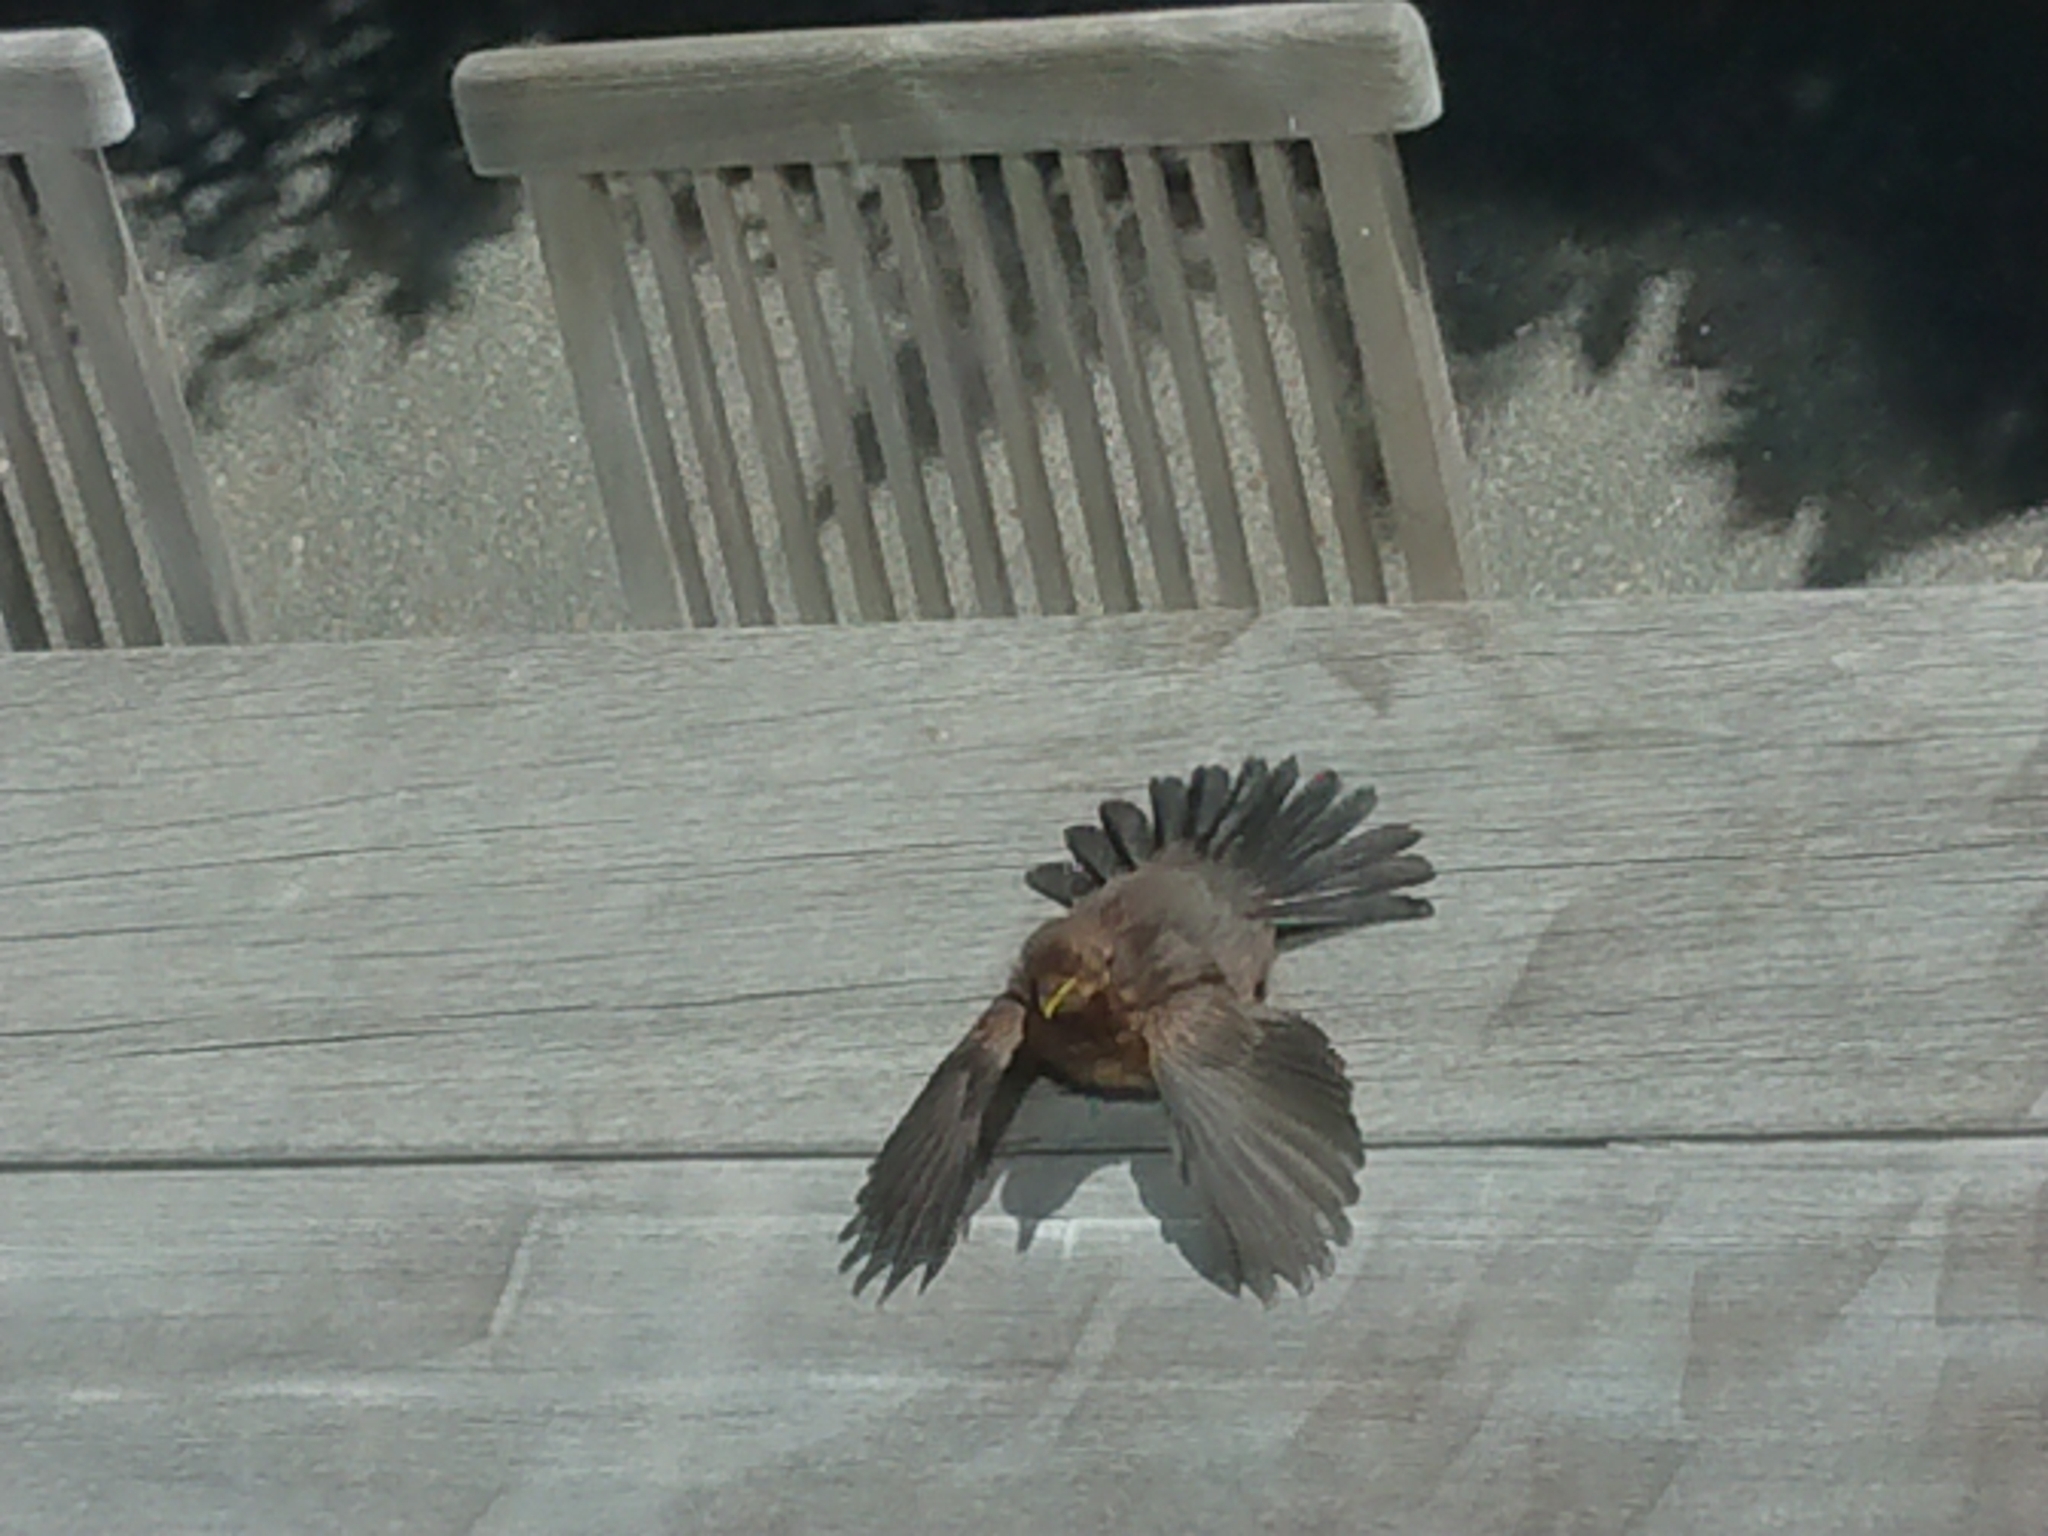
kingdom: Animalia
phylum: Chordata
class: Aves
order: Passeriformes
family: Turdidae
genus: Turdus
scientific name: Turdus merula
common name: Common blackbird
